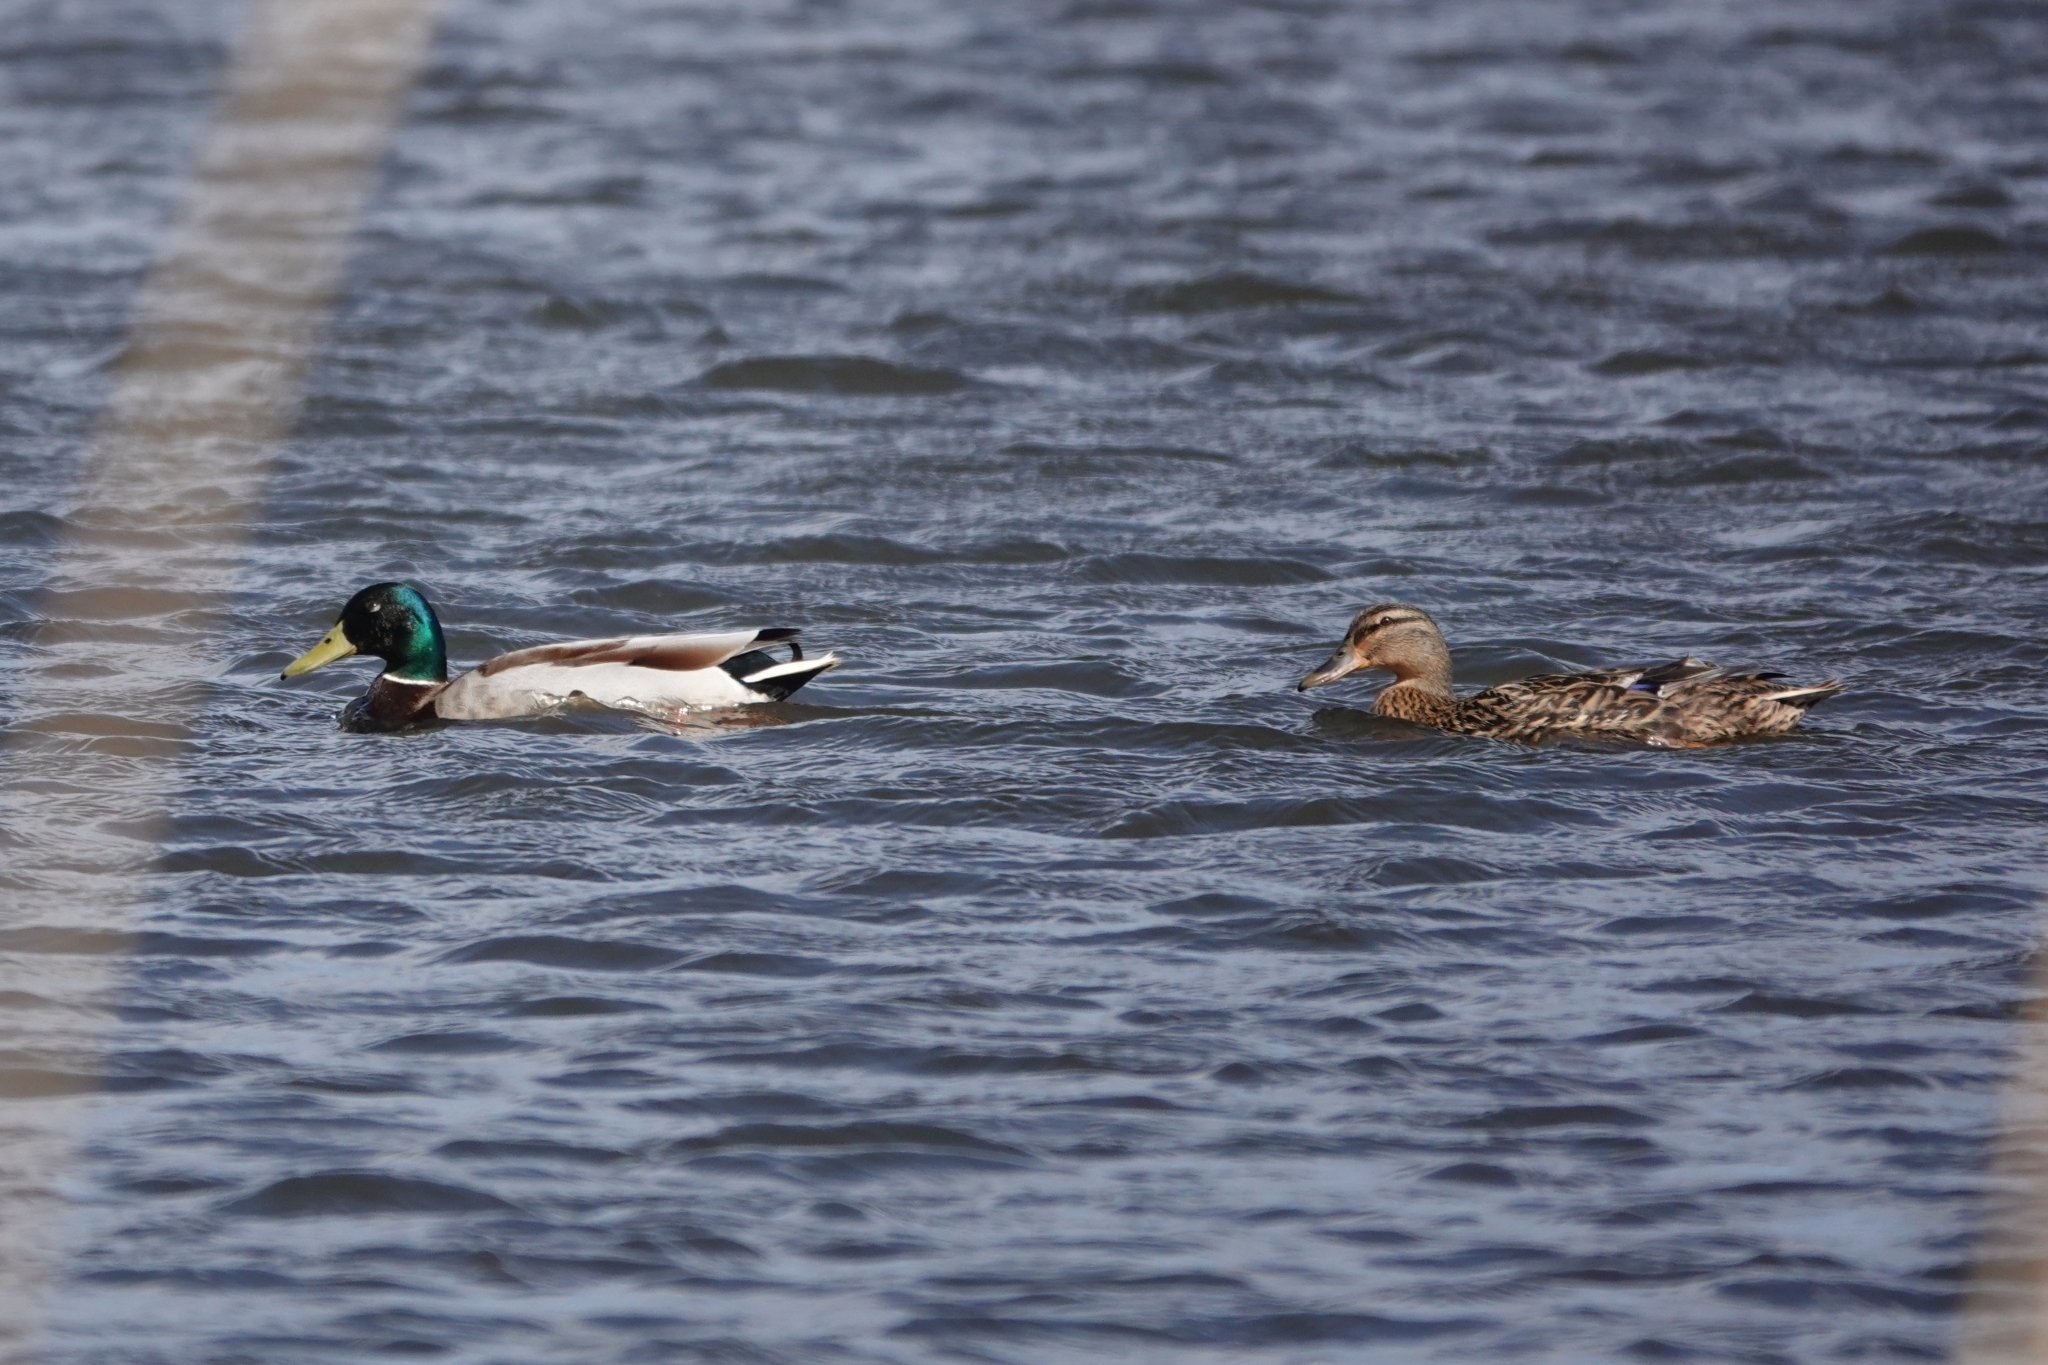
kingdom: Animalia
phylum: Chordata
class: Aves
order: Anseriformes
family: Anatidae
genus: Anas
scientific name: Anas platyrhynchos
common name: Mallard
